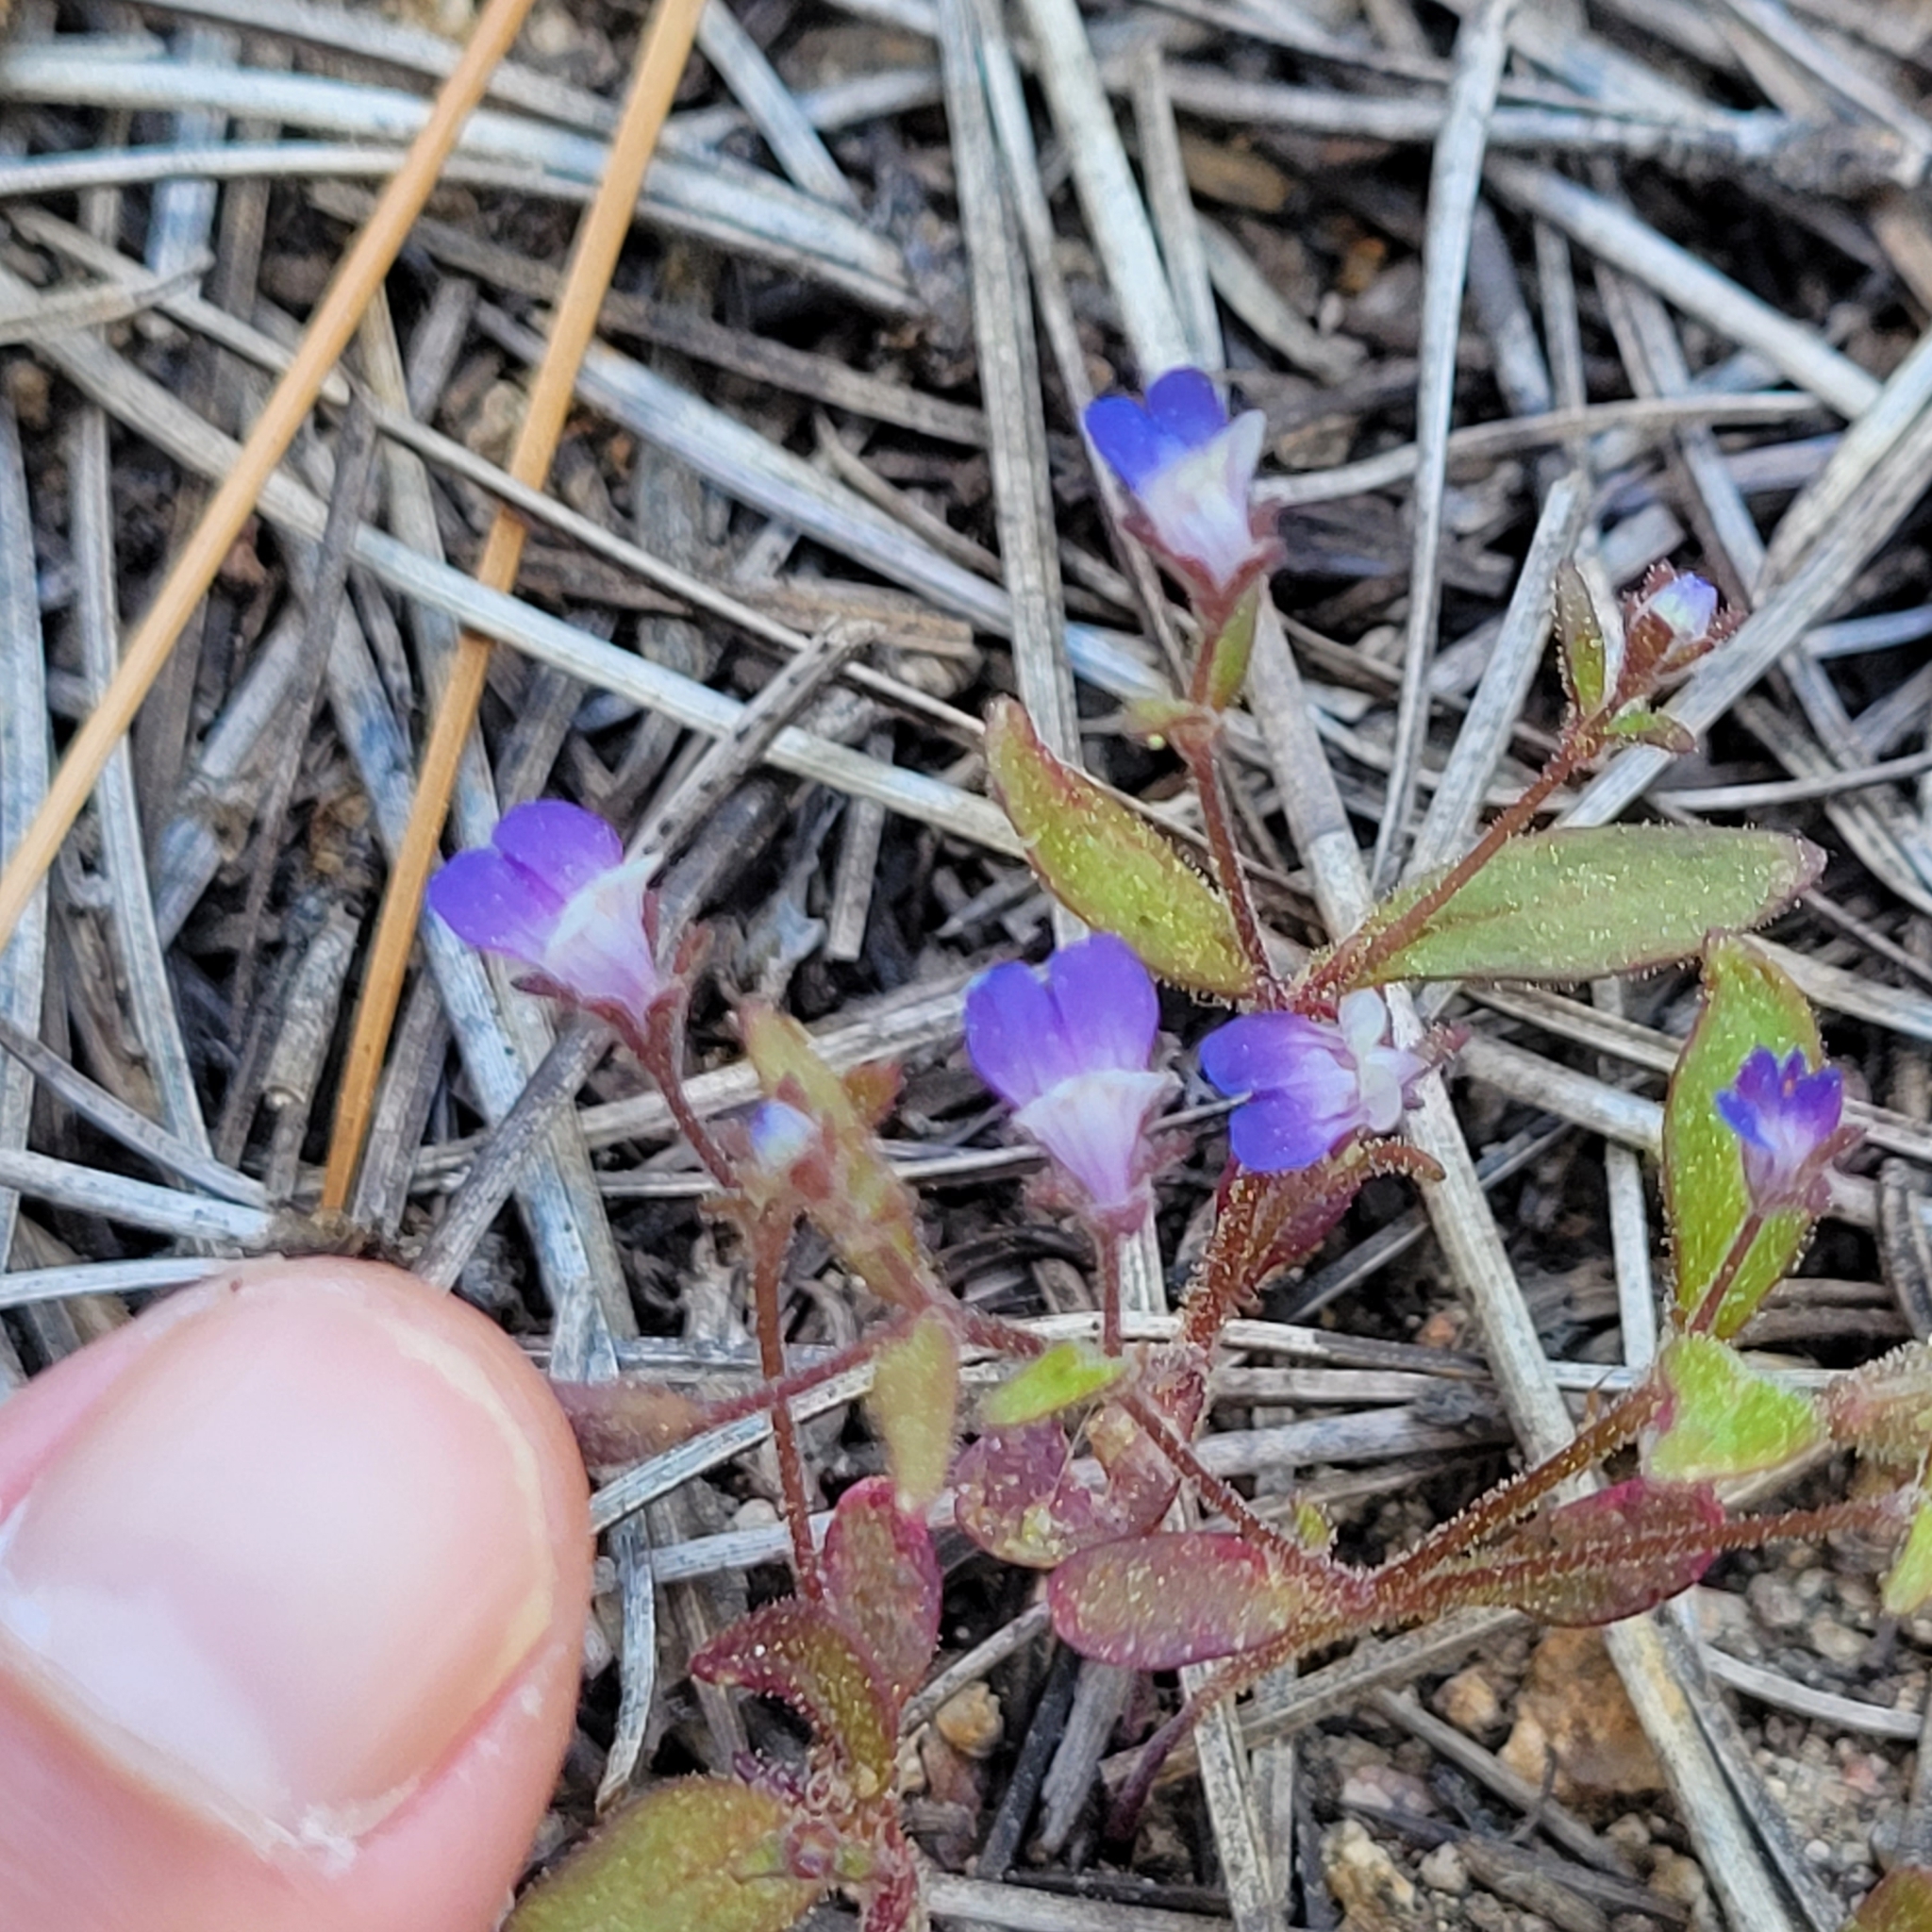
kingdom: Plantae
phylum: Tracheophyta
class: Magnoliopsida
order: Lamiales
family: Plantaginaceae
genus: Collinsia
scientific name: Collinsia torreyi
